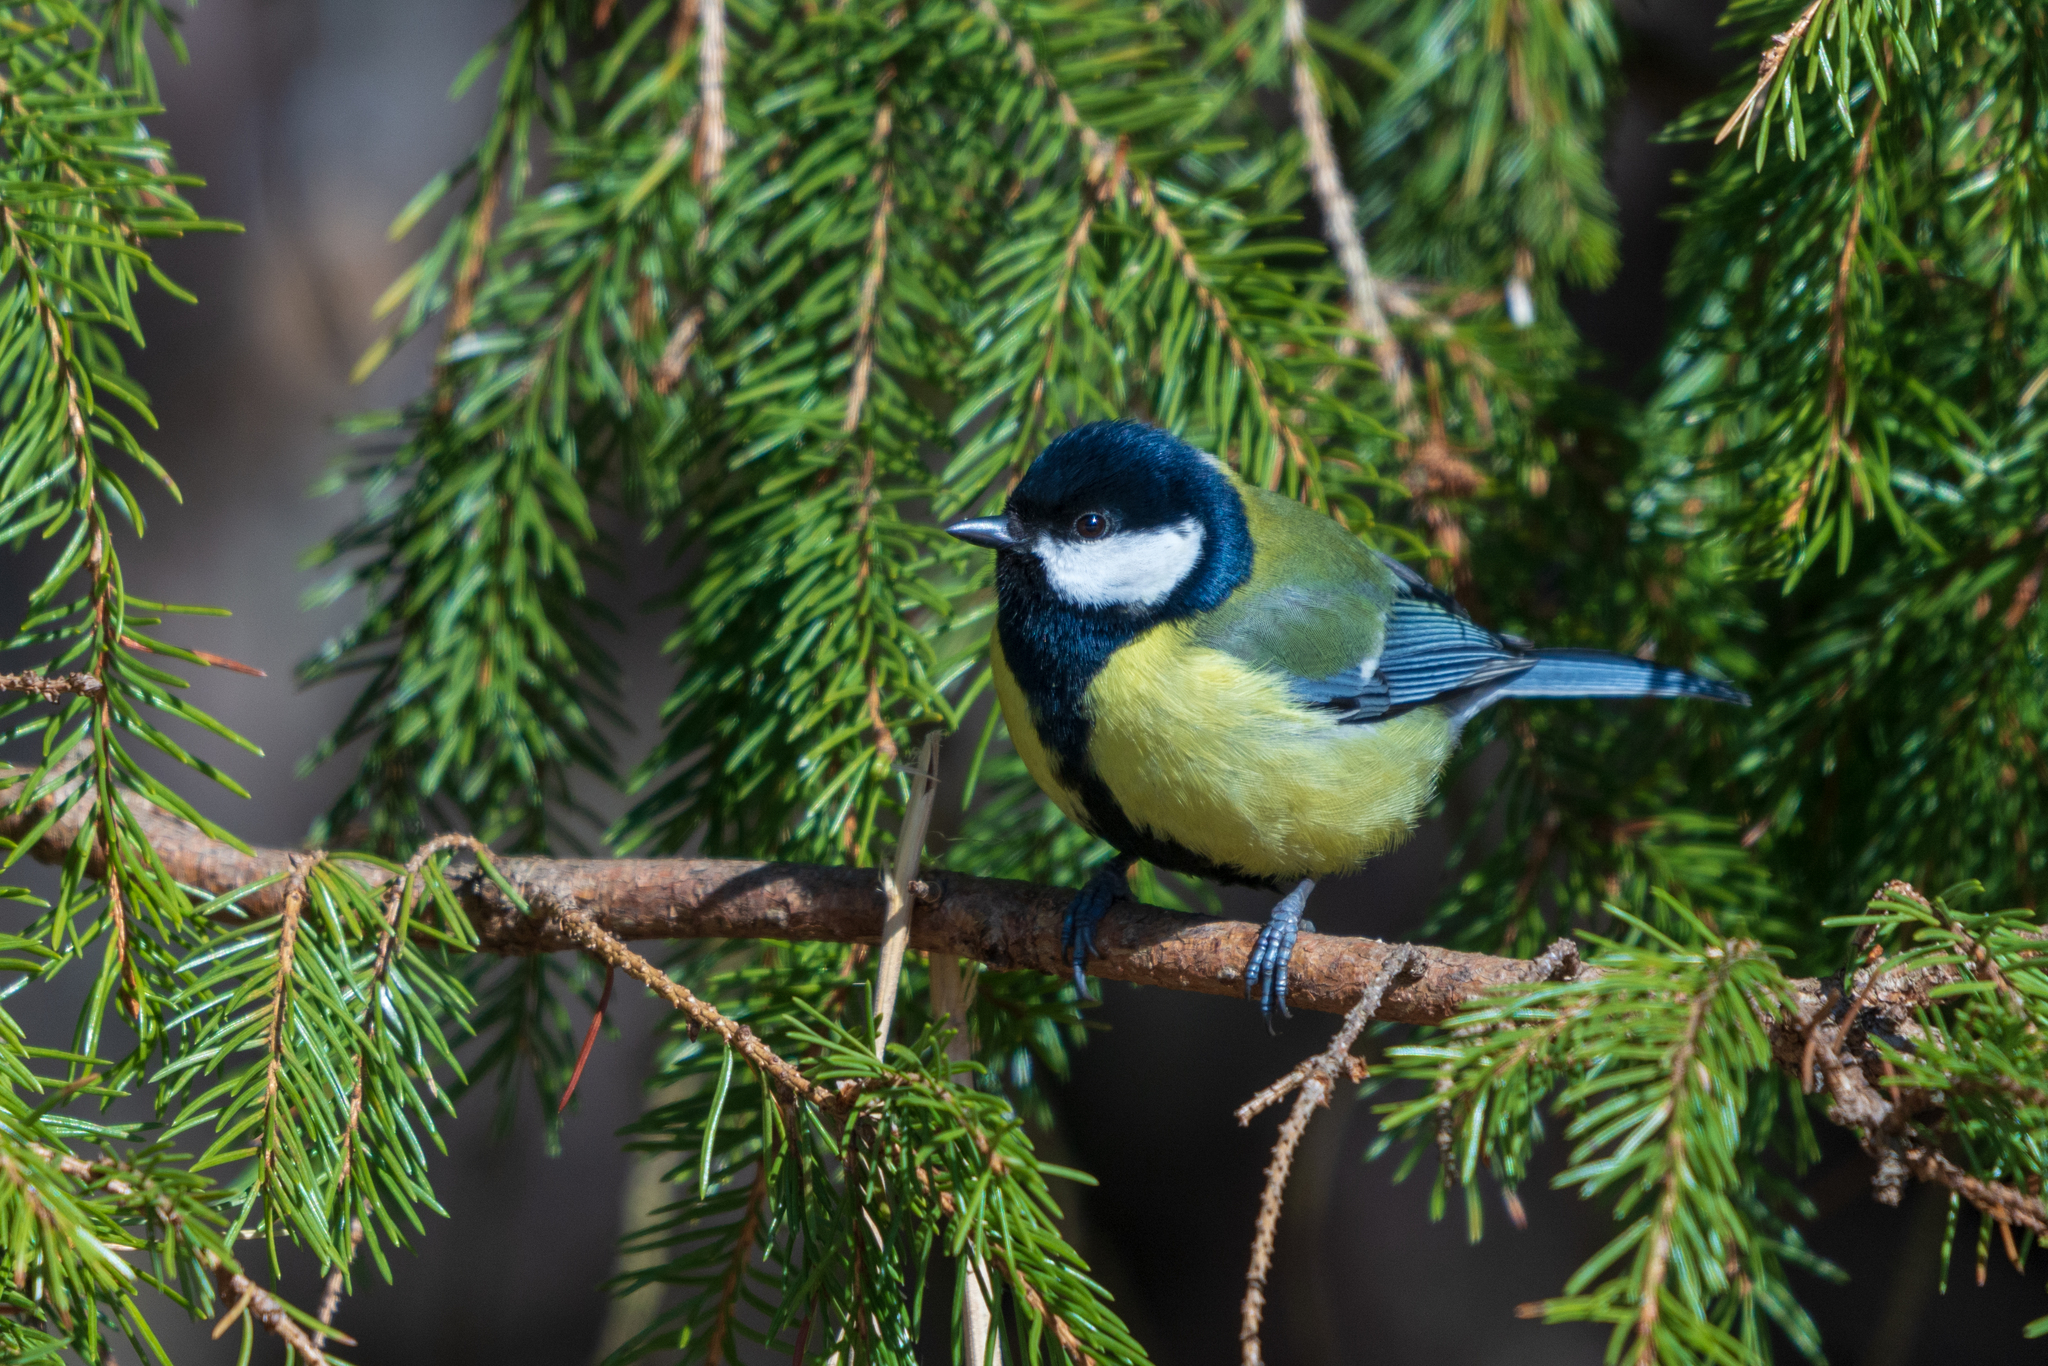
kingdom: Animalia
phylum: Chordata
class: Aves
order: Passeriformes
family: Paridae
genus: Parus
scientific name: Parus major
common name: Great tit
